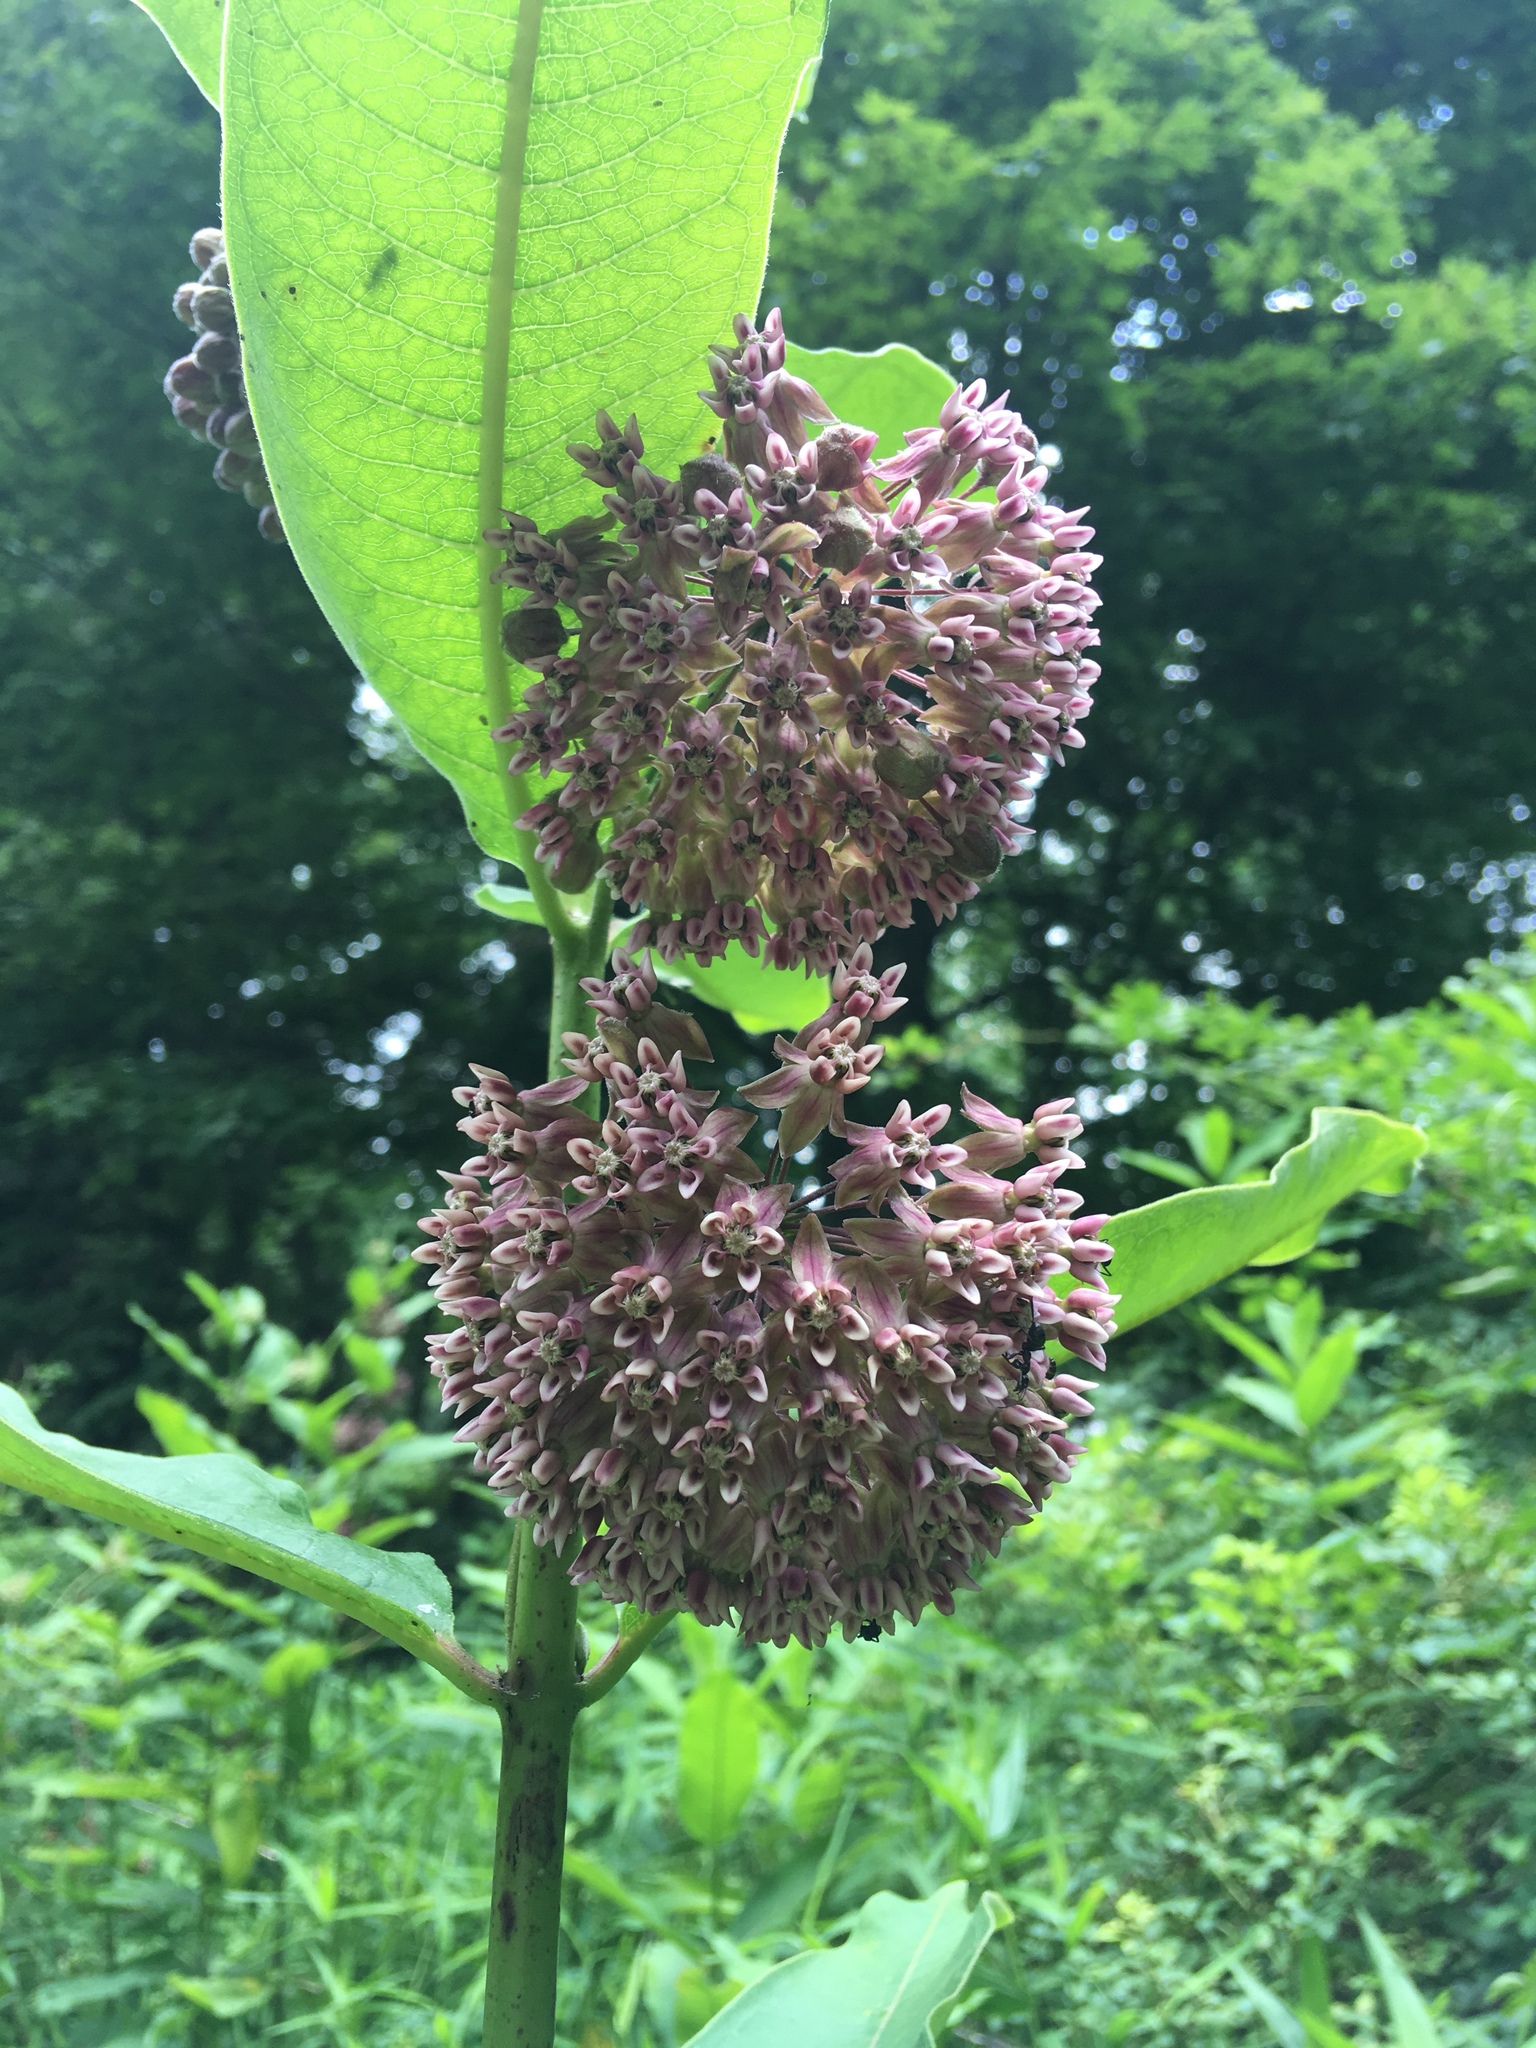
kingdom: Plantae
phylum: Tracheophyta
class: Magnoliopsida
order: Gentianales
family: Apocynaceae
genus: Asclepias
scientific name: Asclepias syriaca
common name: Common milkweed
